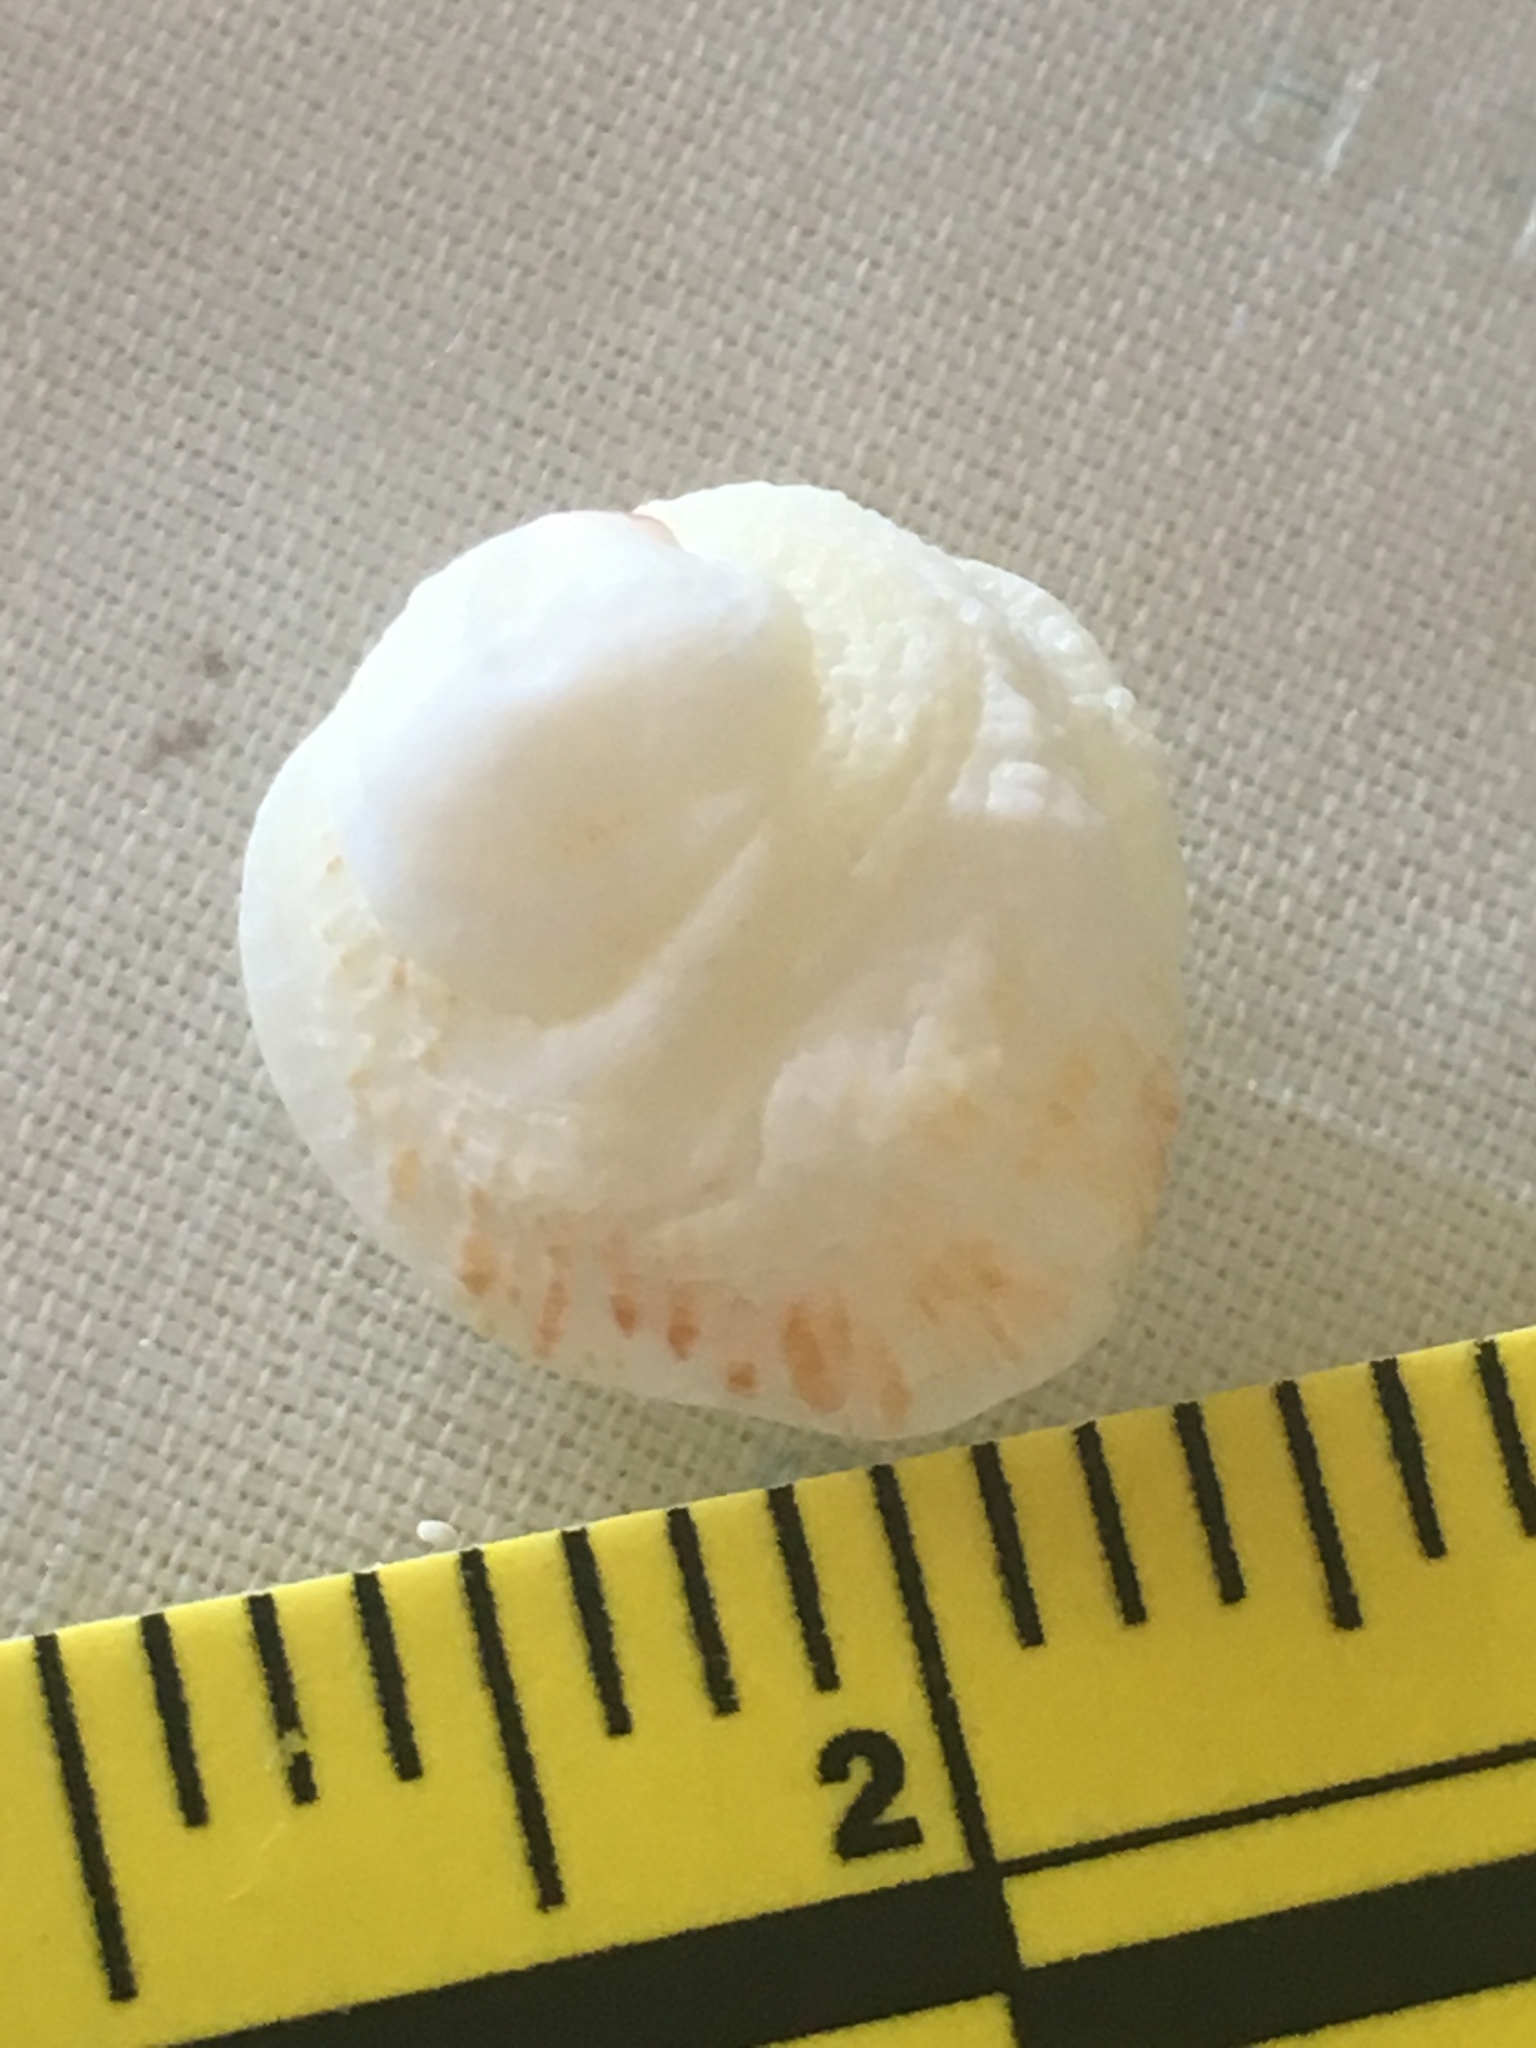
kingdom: Animalia
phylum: Mollusca
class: Bivalvia
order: Venerida
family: Chamidae
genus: Chama
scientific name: Chama congregata
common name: Corrugate jewelbox
